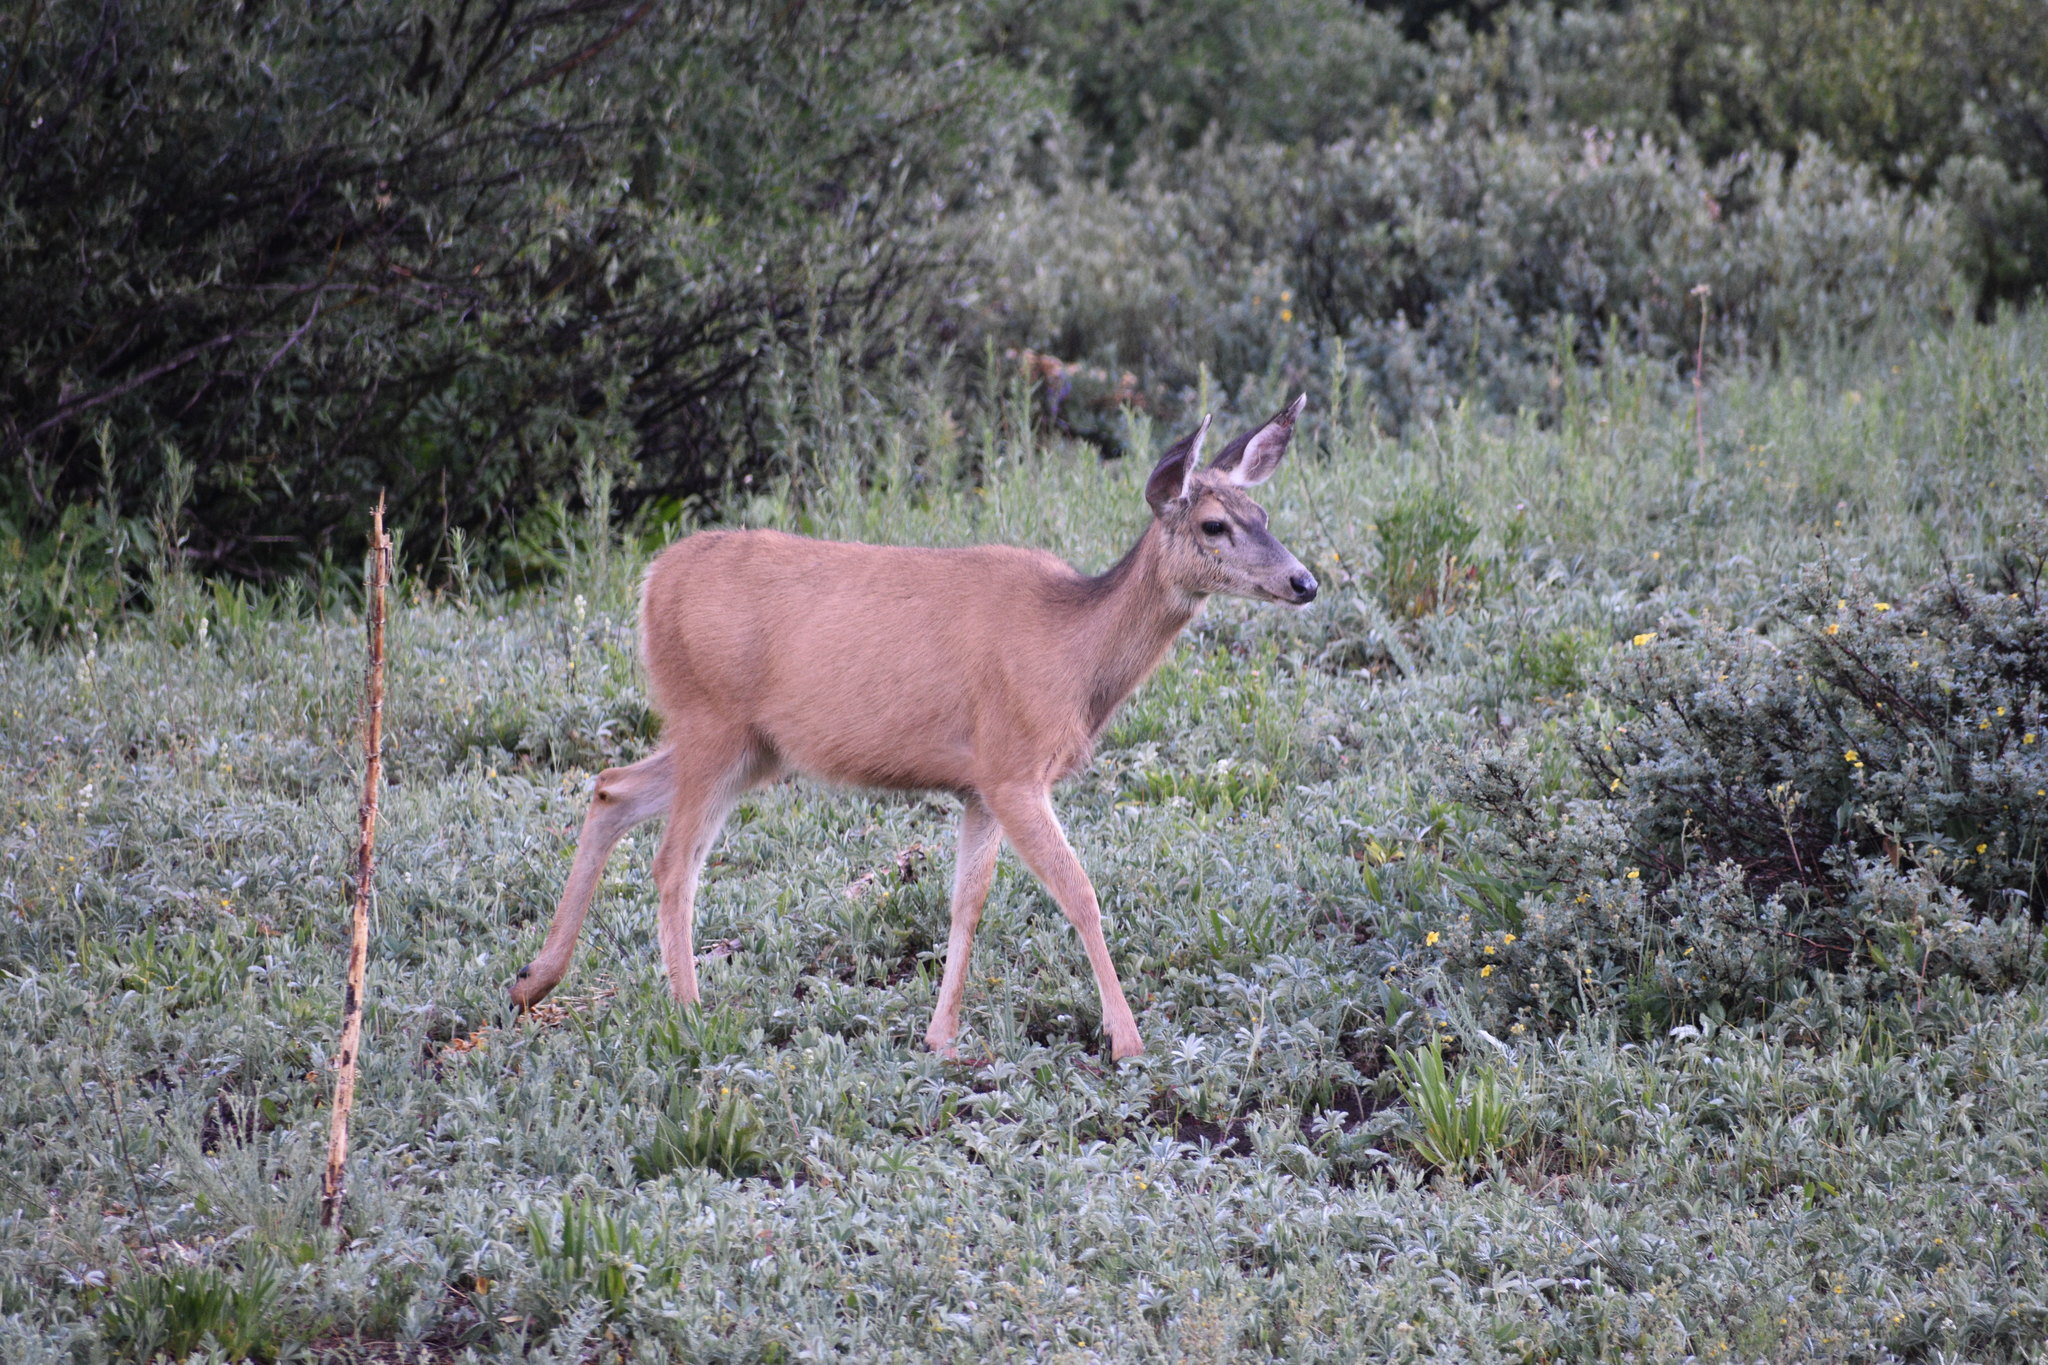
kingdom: Animalia
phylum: Chordata
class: Mammalia
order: Artiodactyla
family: Cervidae
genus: Odocoileus
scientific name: Odocoileus hemionus
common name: Mule deer
